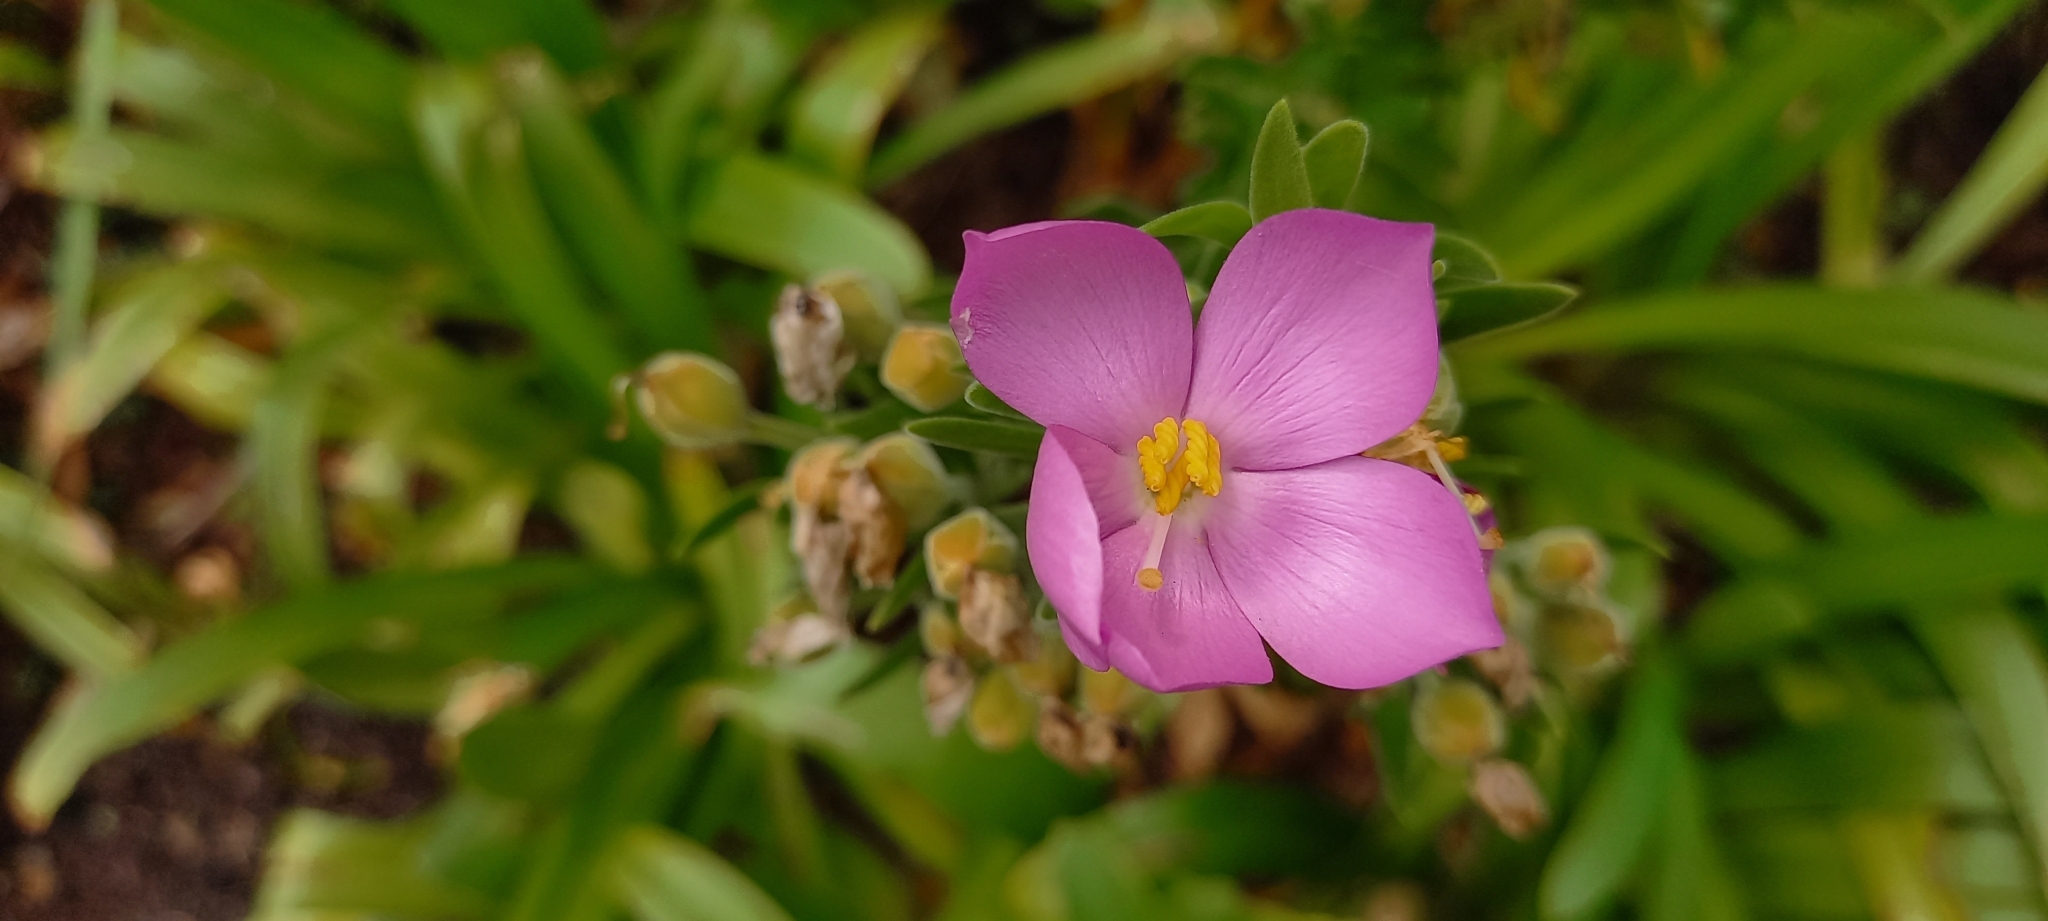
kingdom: Plantae
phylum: Tracheophyta
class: Magnoliopsida
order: Gentianales
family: Gentianaceae
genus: Orphium
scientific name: Orphium frutescens
